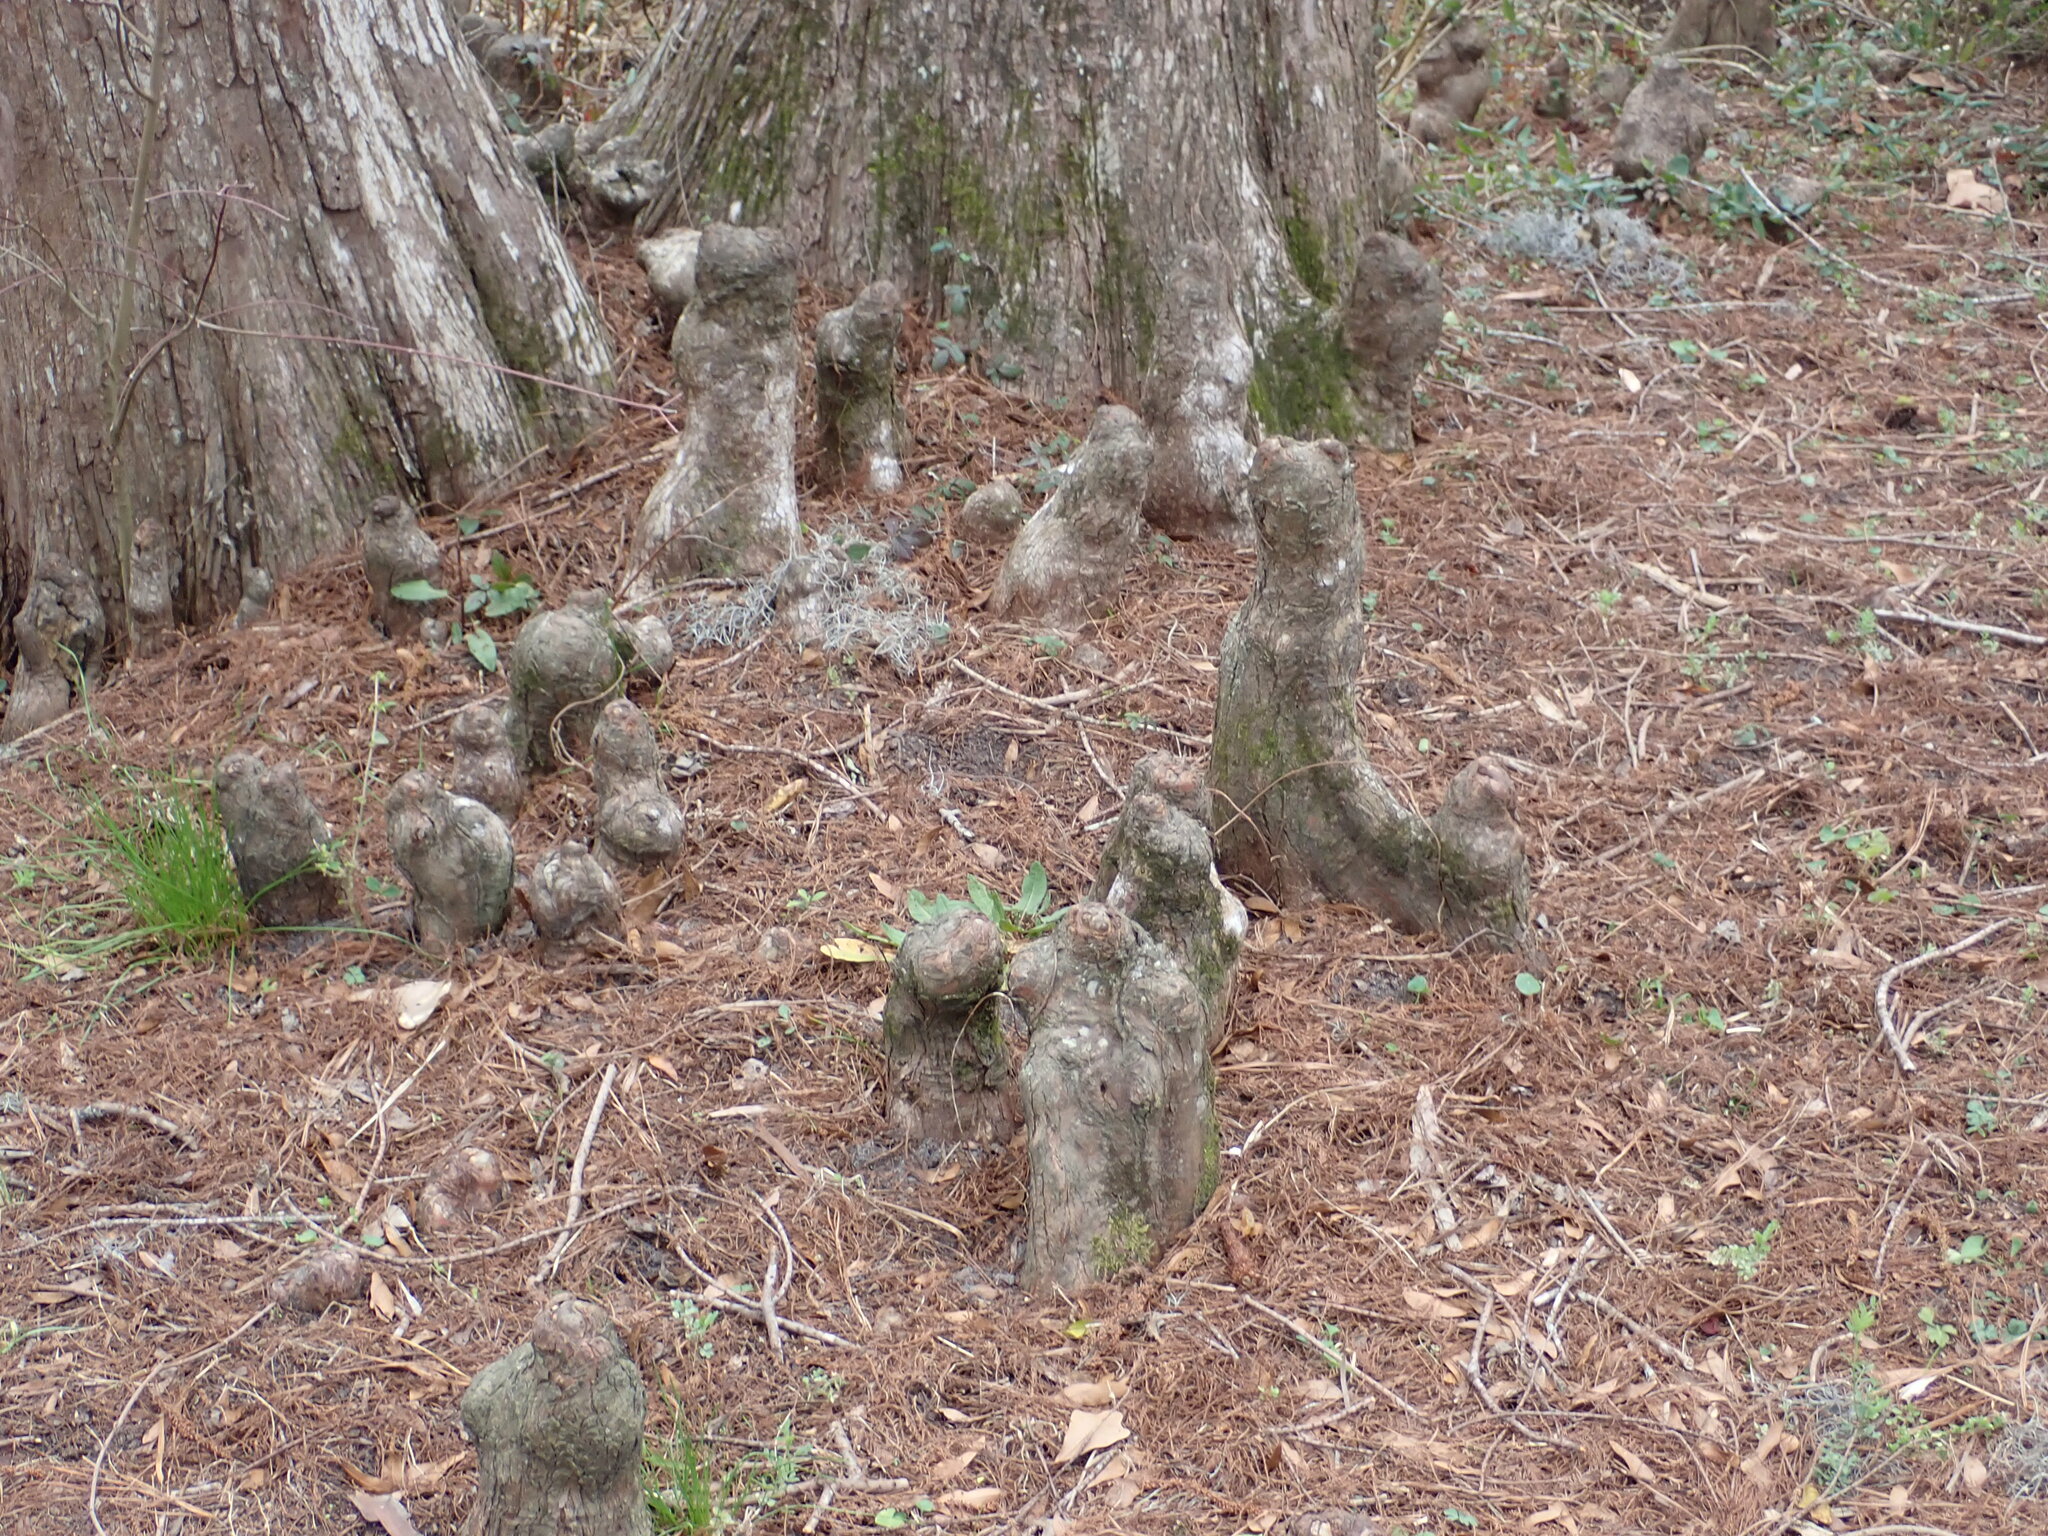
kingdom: Plantae
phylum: Tracheophyta
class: Pinopsida
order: Pinales
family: Cupressaceae
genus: Taxodium
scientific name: Taxodium distichum
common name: Bald cypress
